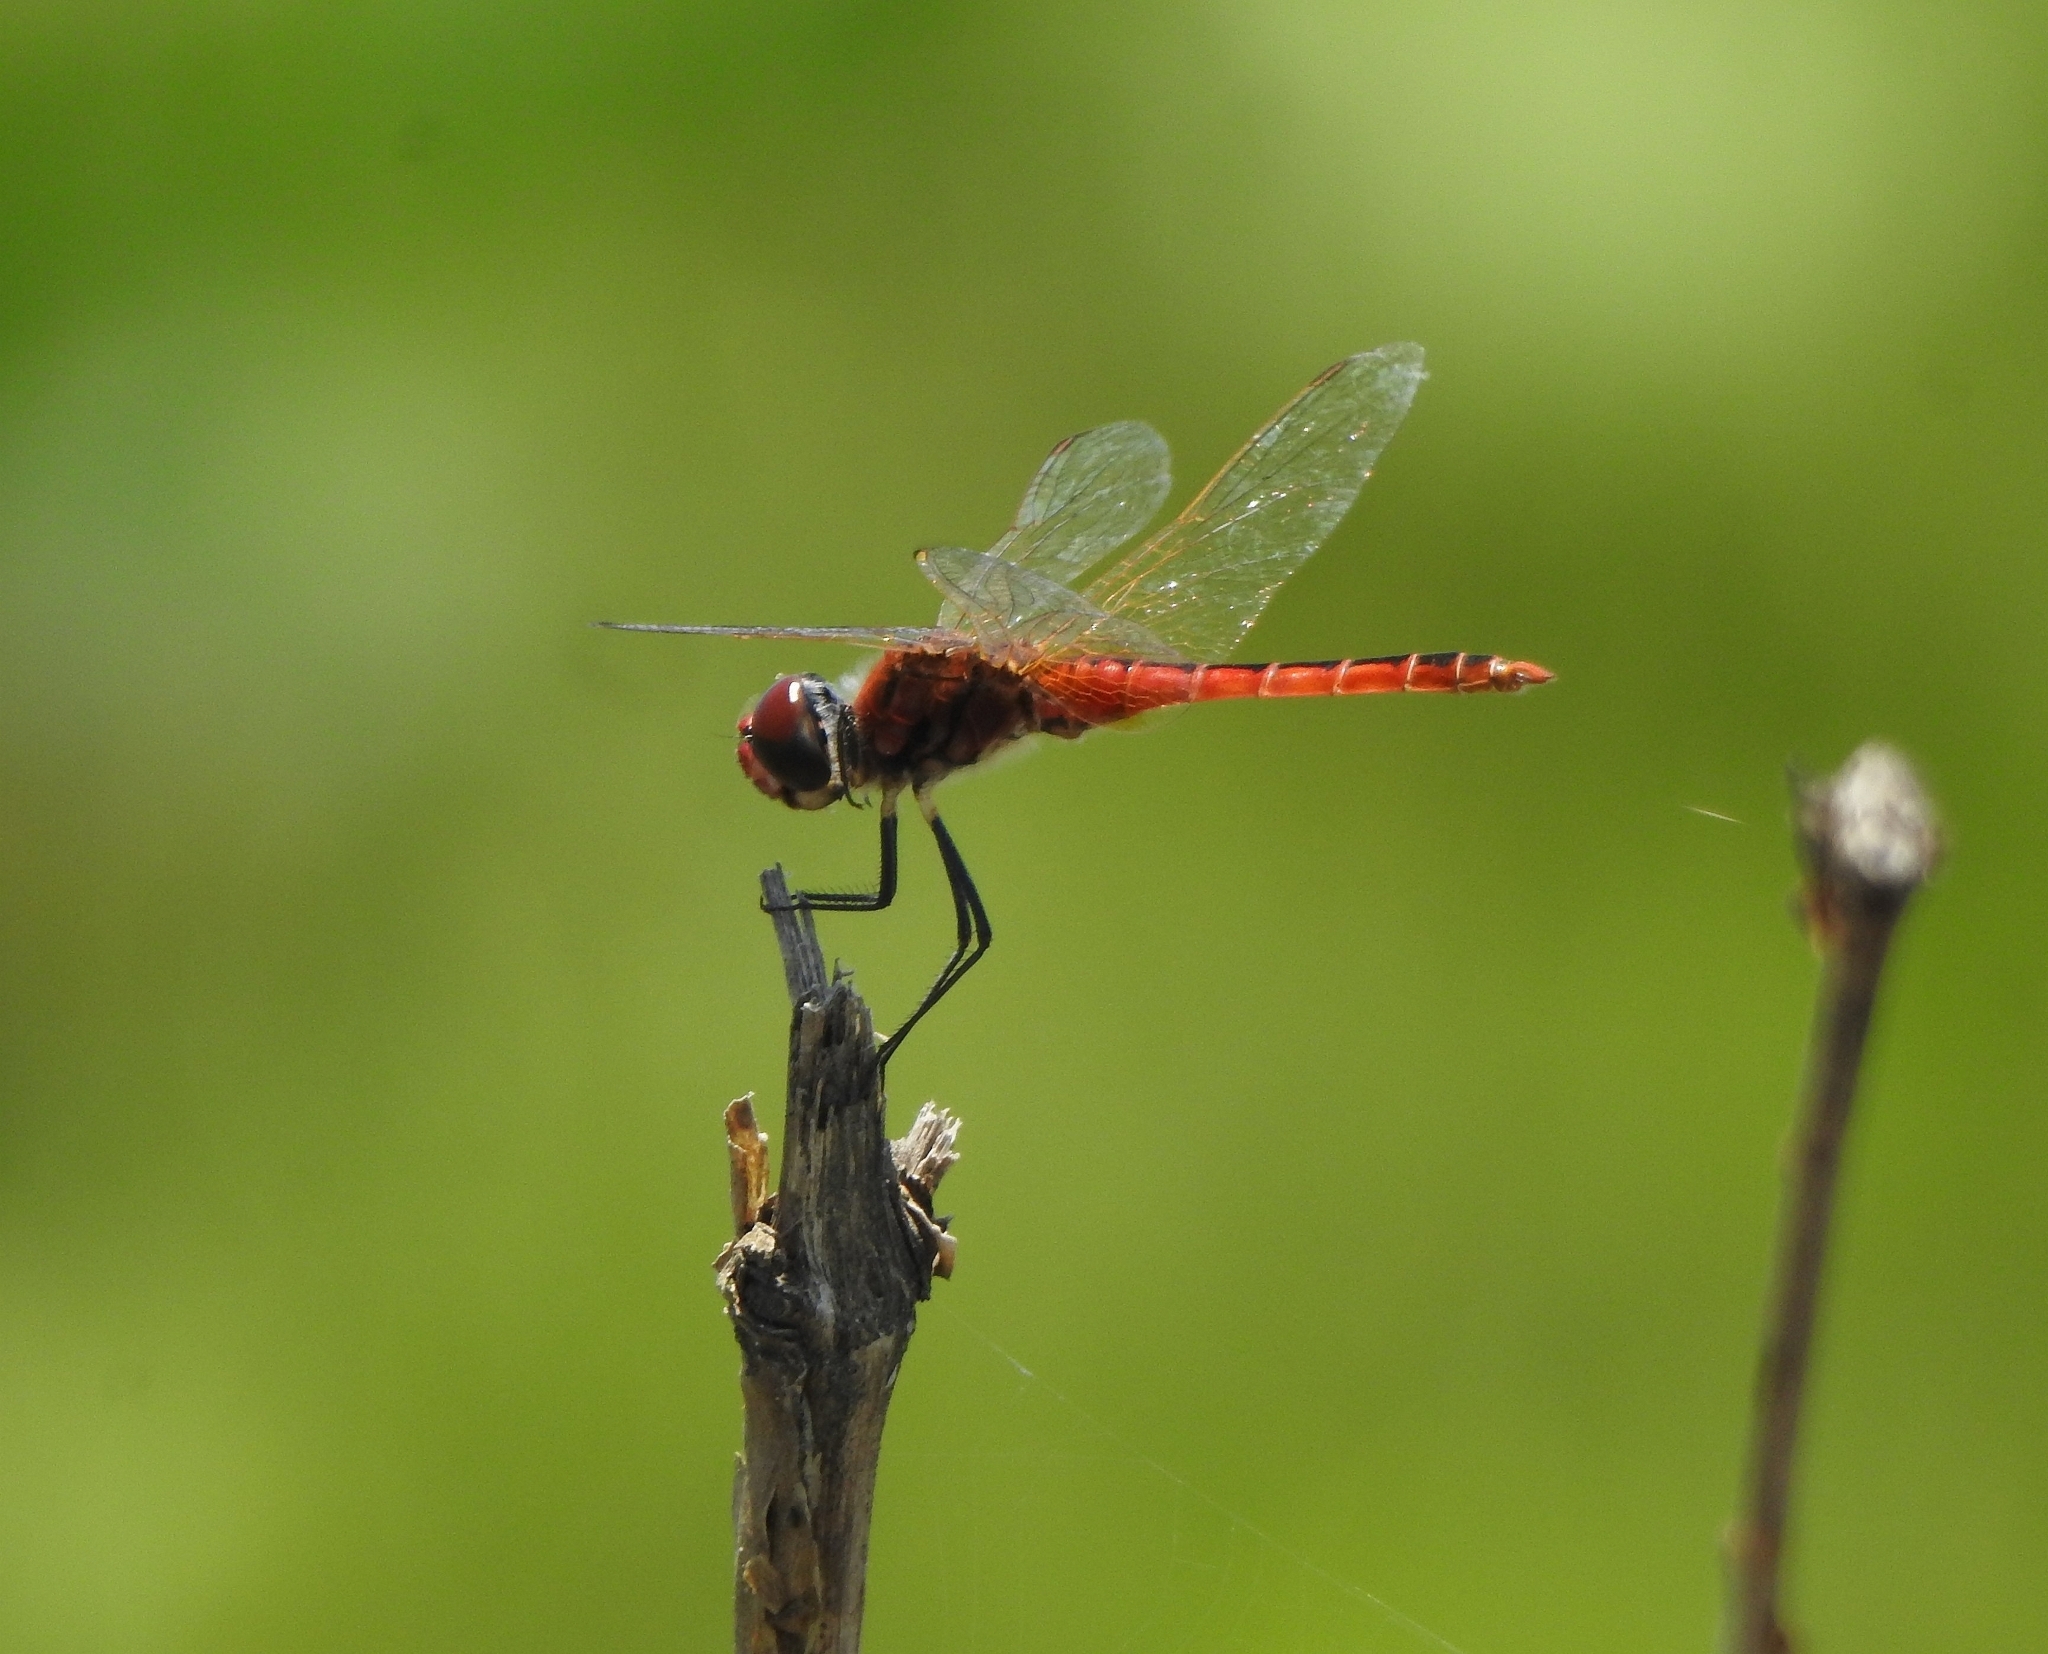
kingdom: Animalia
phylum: Arthropoda
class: Insecta
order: Odonata
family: Libellulidae
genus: Macrodiplax
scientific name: Macrodiplax cora
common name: Coastal glider
